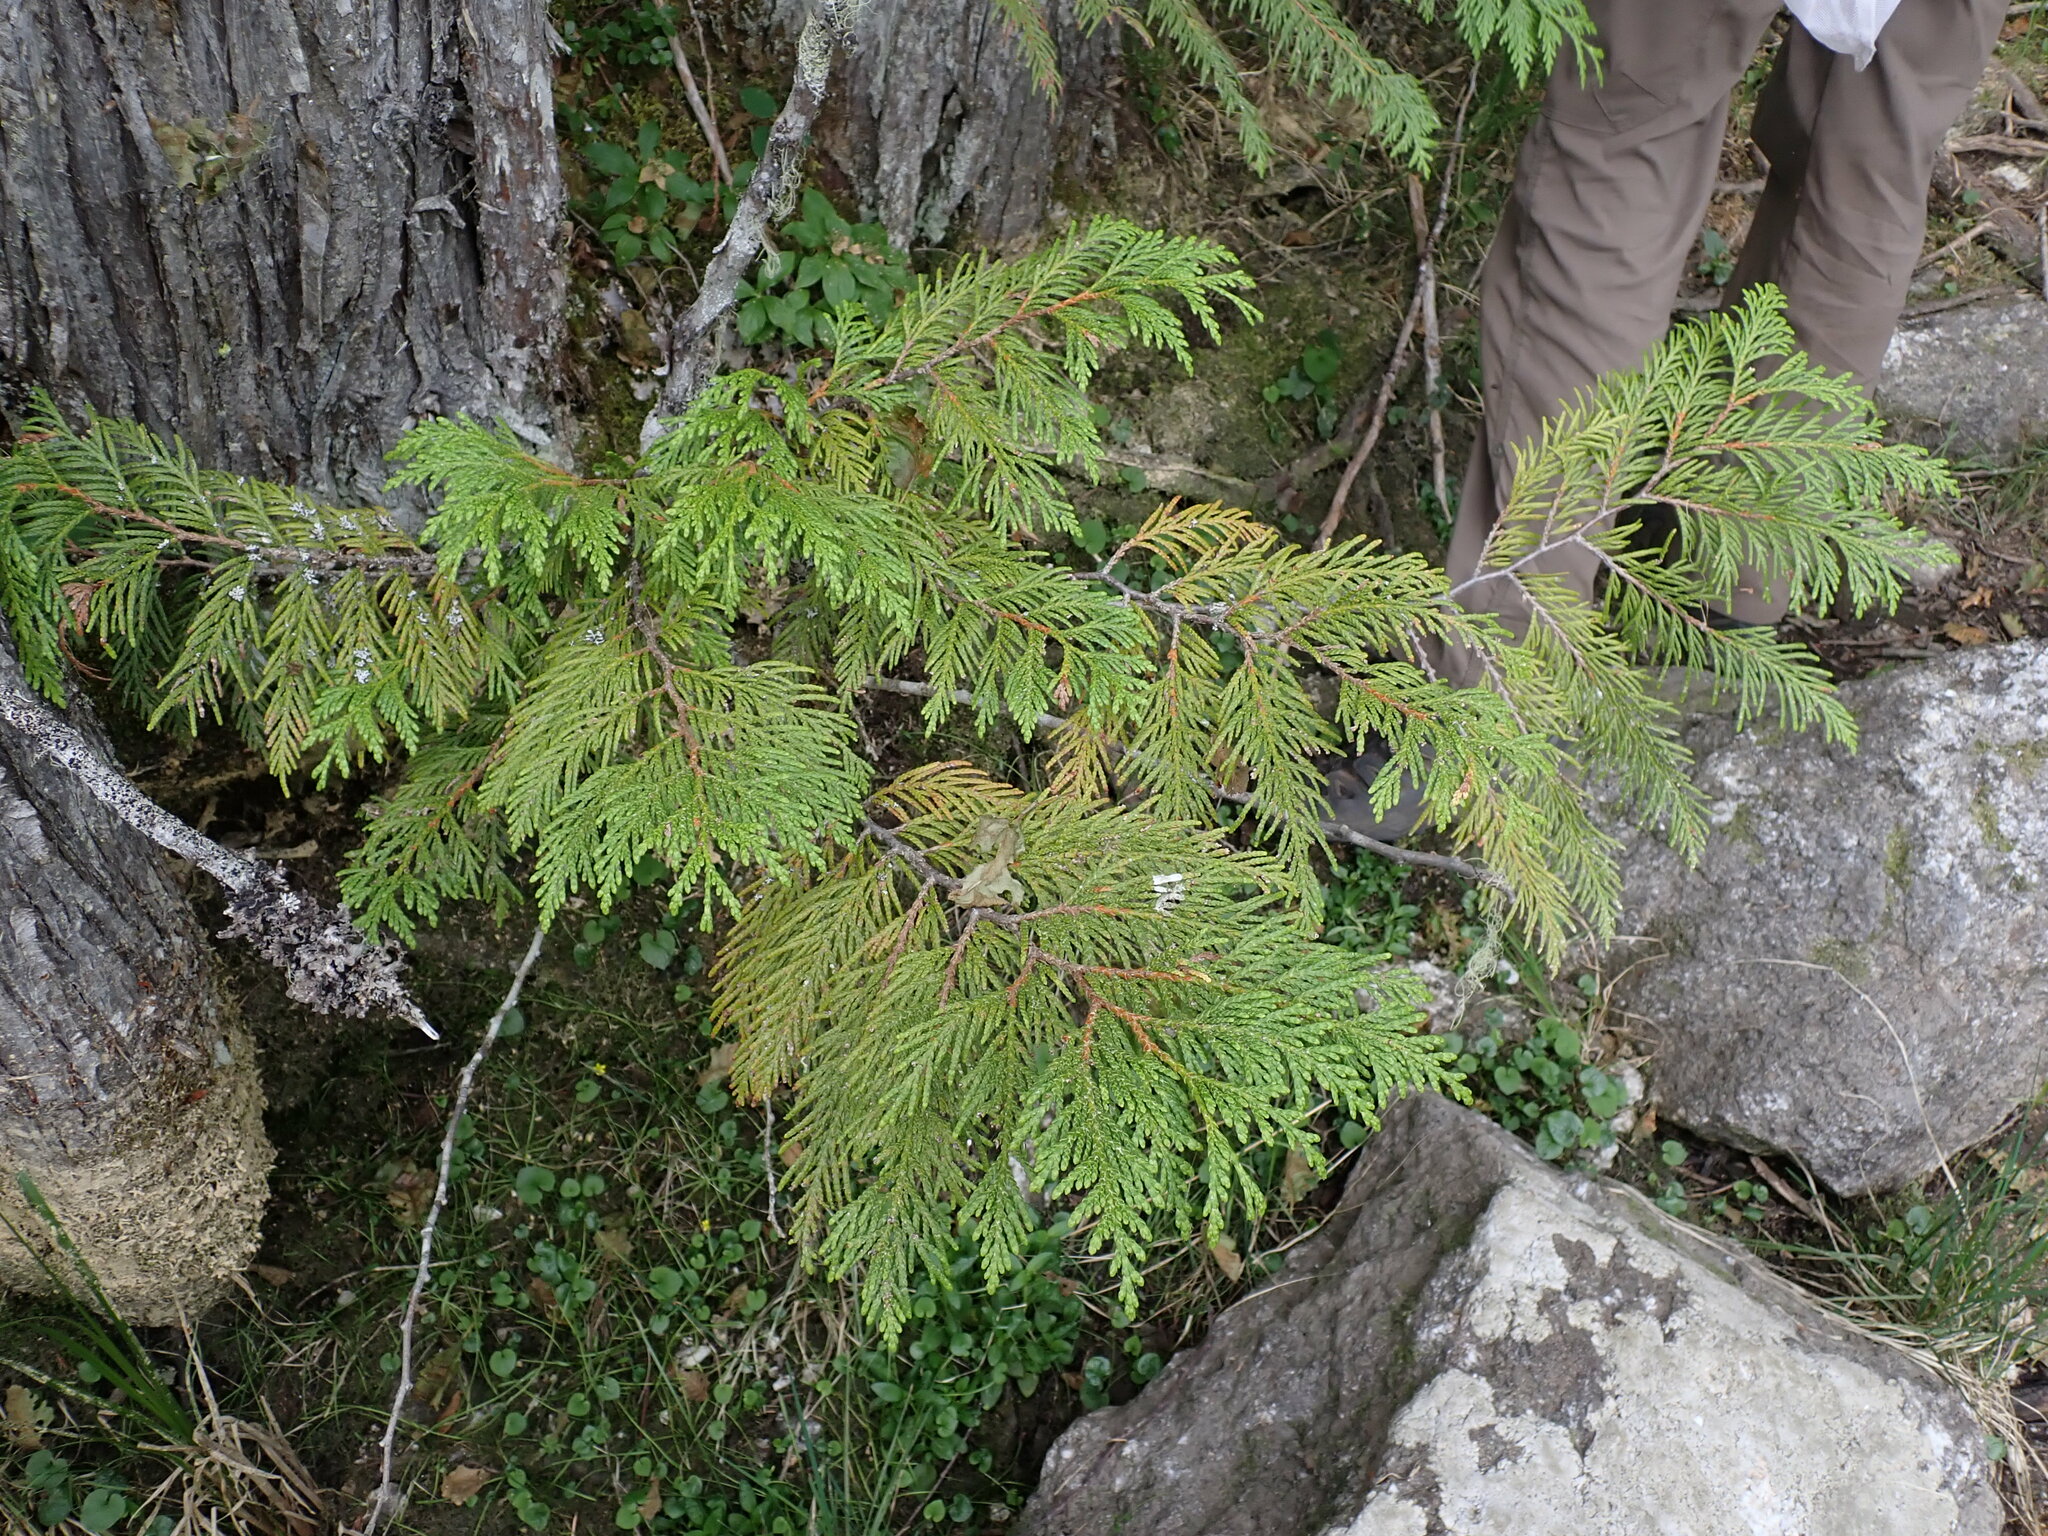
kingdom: Plantae
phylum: Tracheophyta
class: Pinopsida
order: Pinales
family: Cupressaceae
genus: Thuja
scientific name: Thuja plicata
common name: Western red-cedar
